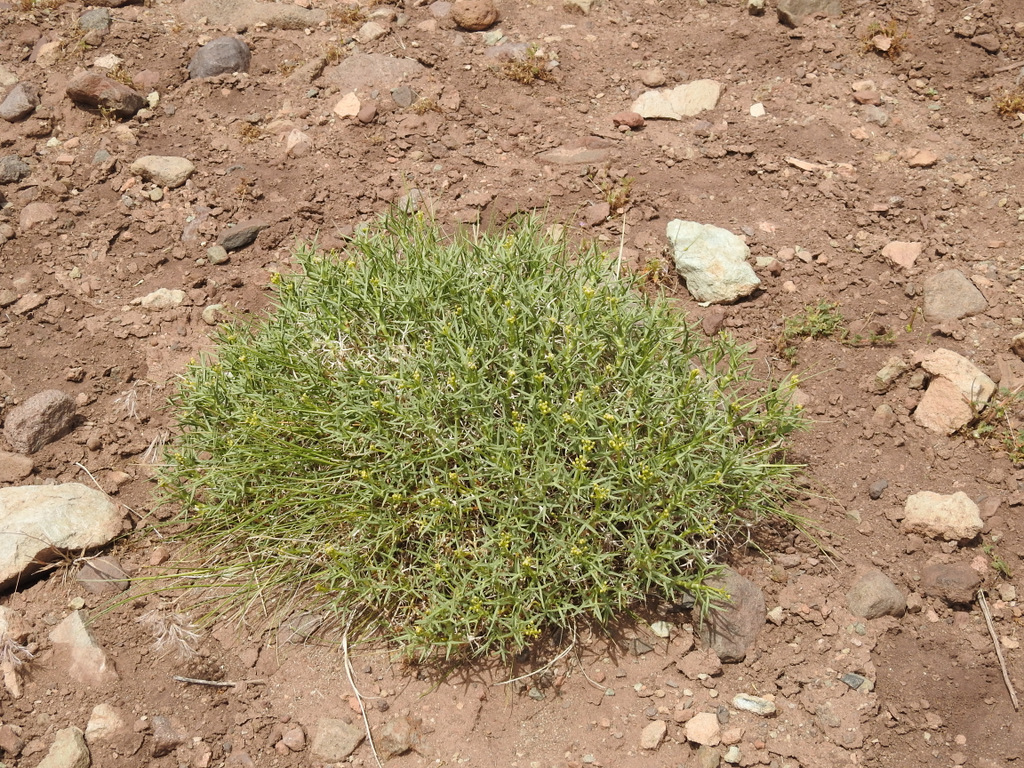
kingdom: Plantae
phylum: Tracheophyta
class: Magnoliopsida
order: Apiales
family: Apiaceae
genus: Azorella
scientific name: Azorella prolifera
